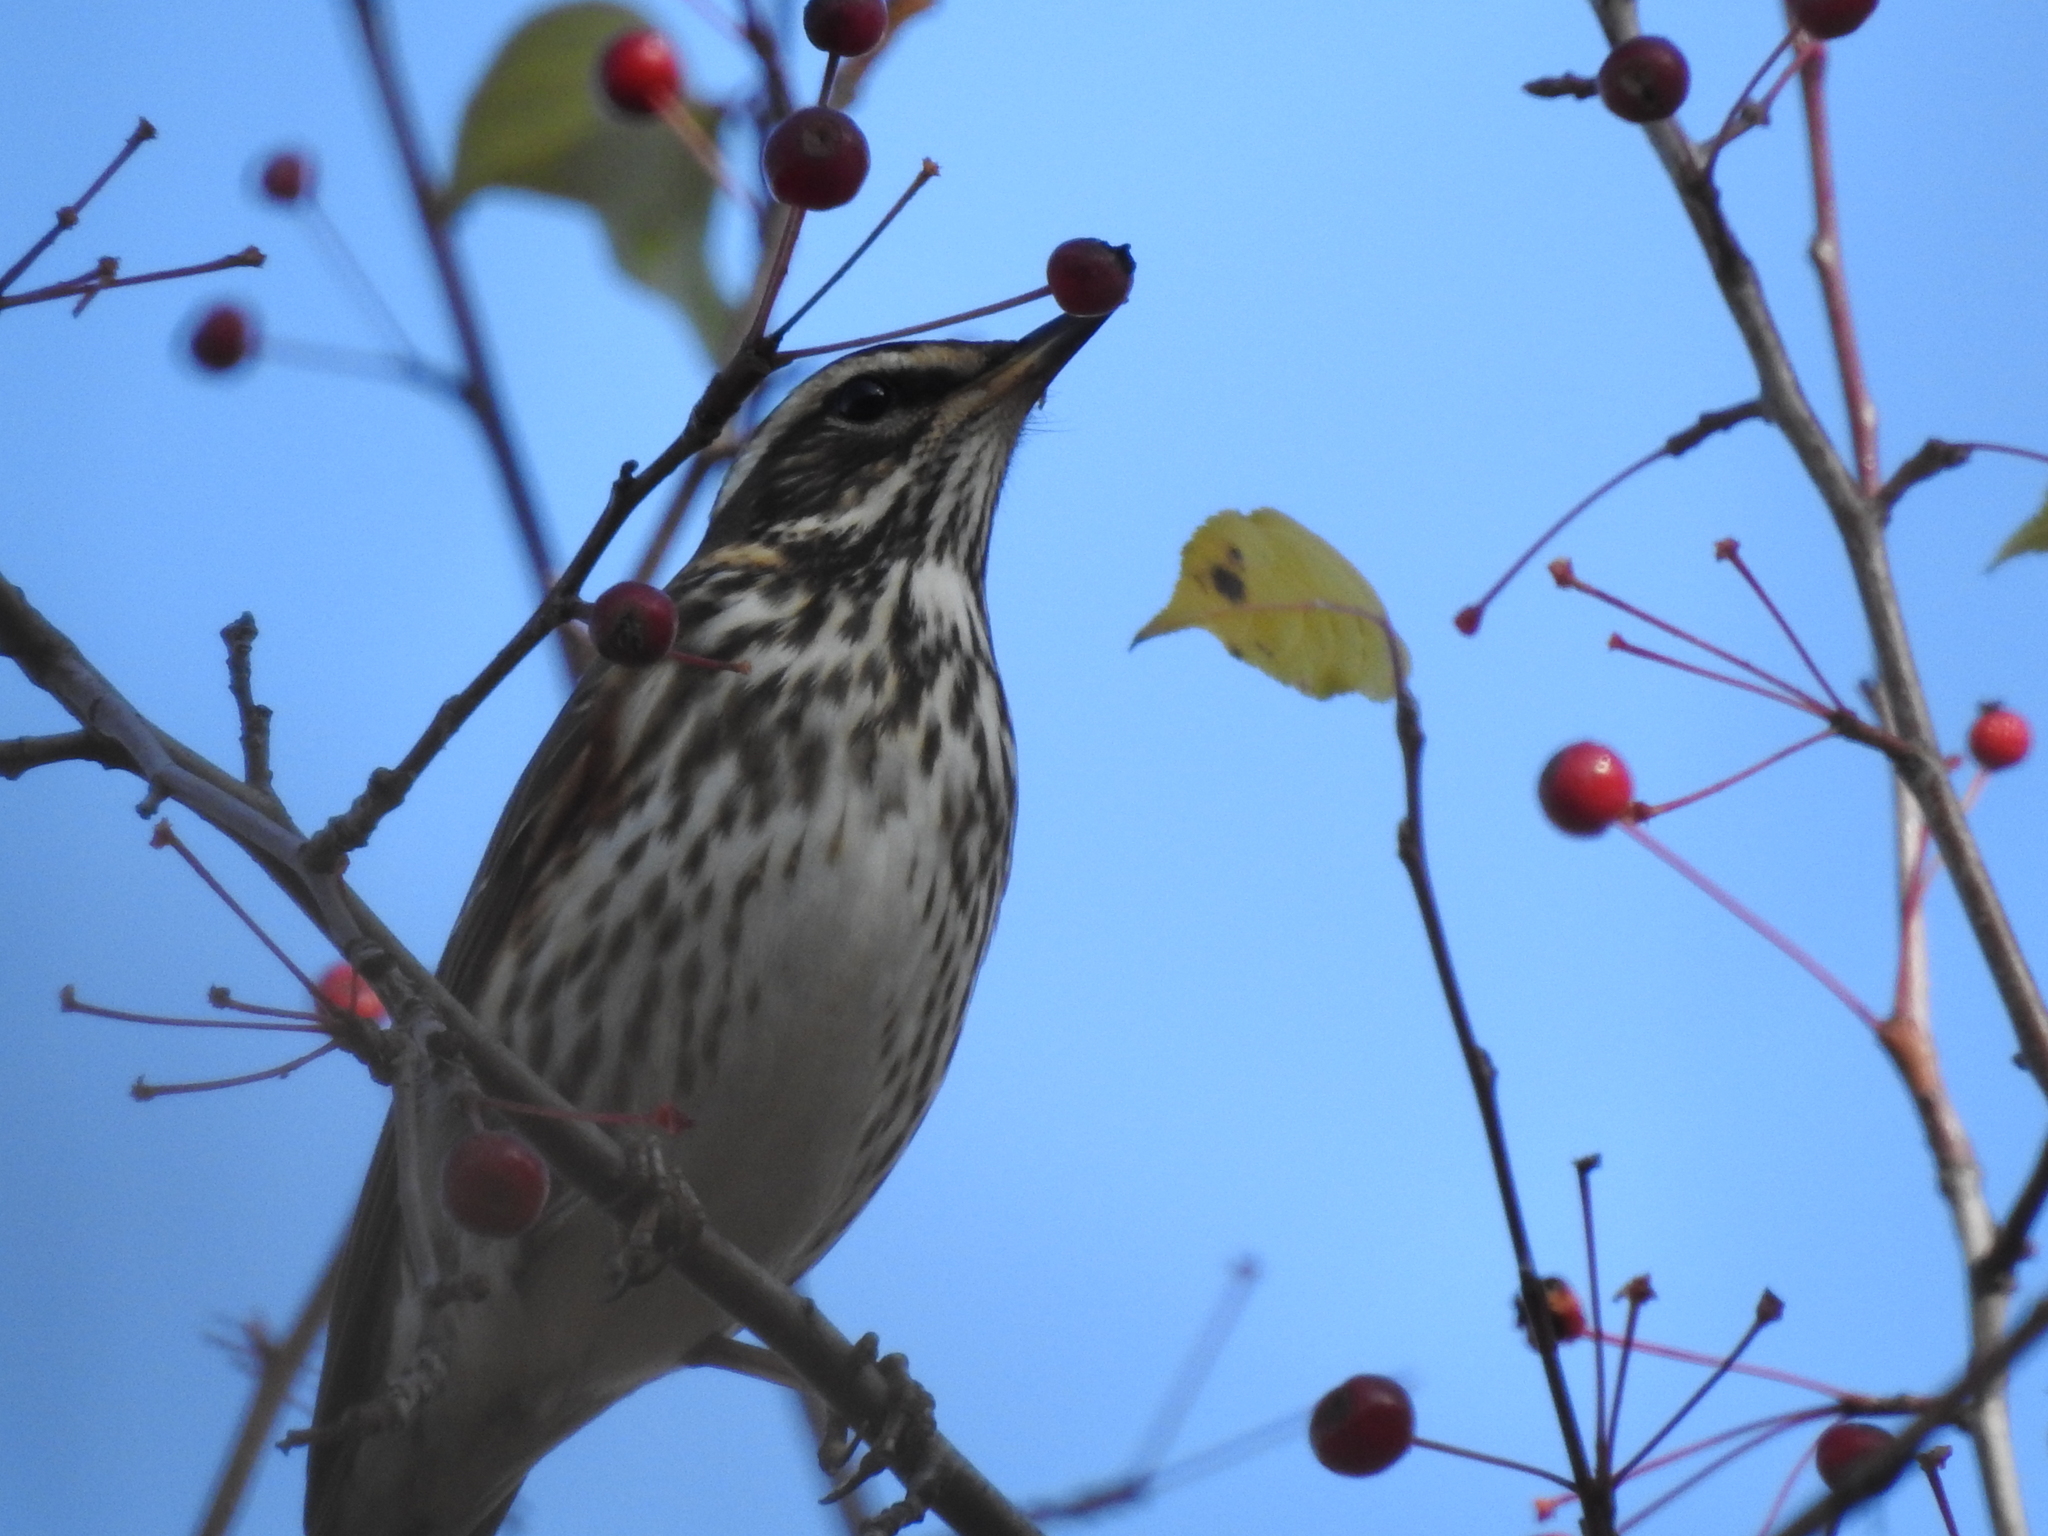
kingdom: Animalia
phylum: Chordata
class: Aves
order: Passeriformes
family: Turdidae
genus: Turdus
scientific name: Turdus iliacus
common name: Redwing
